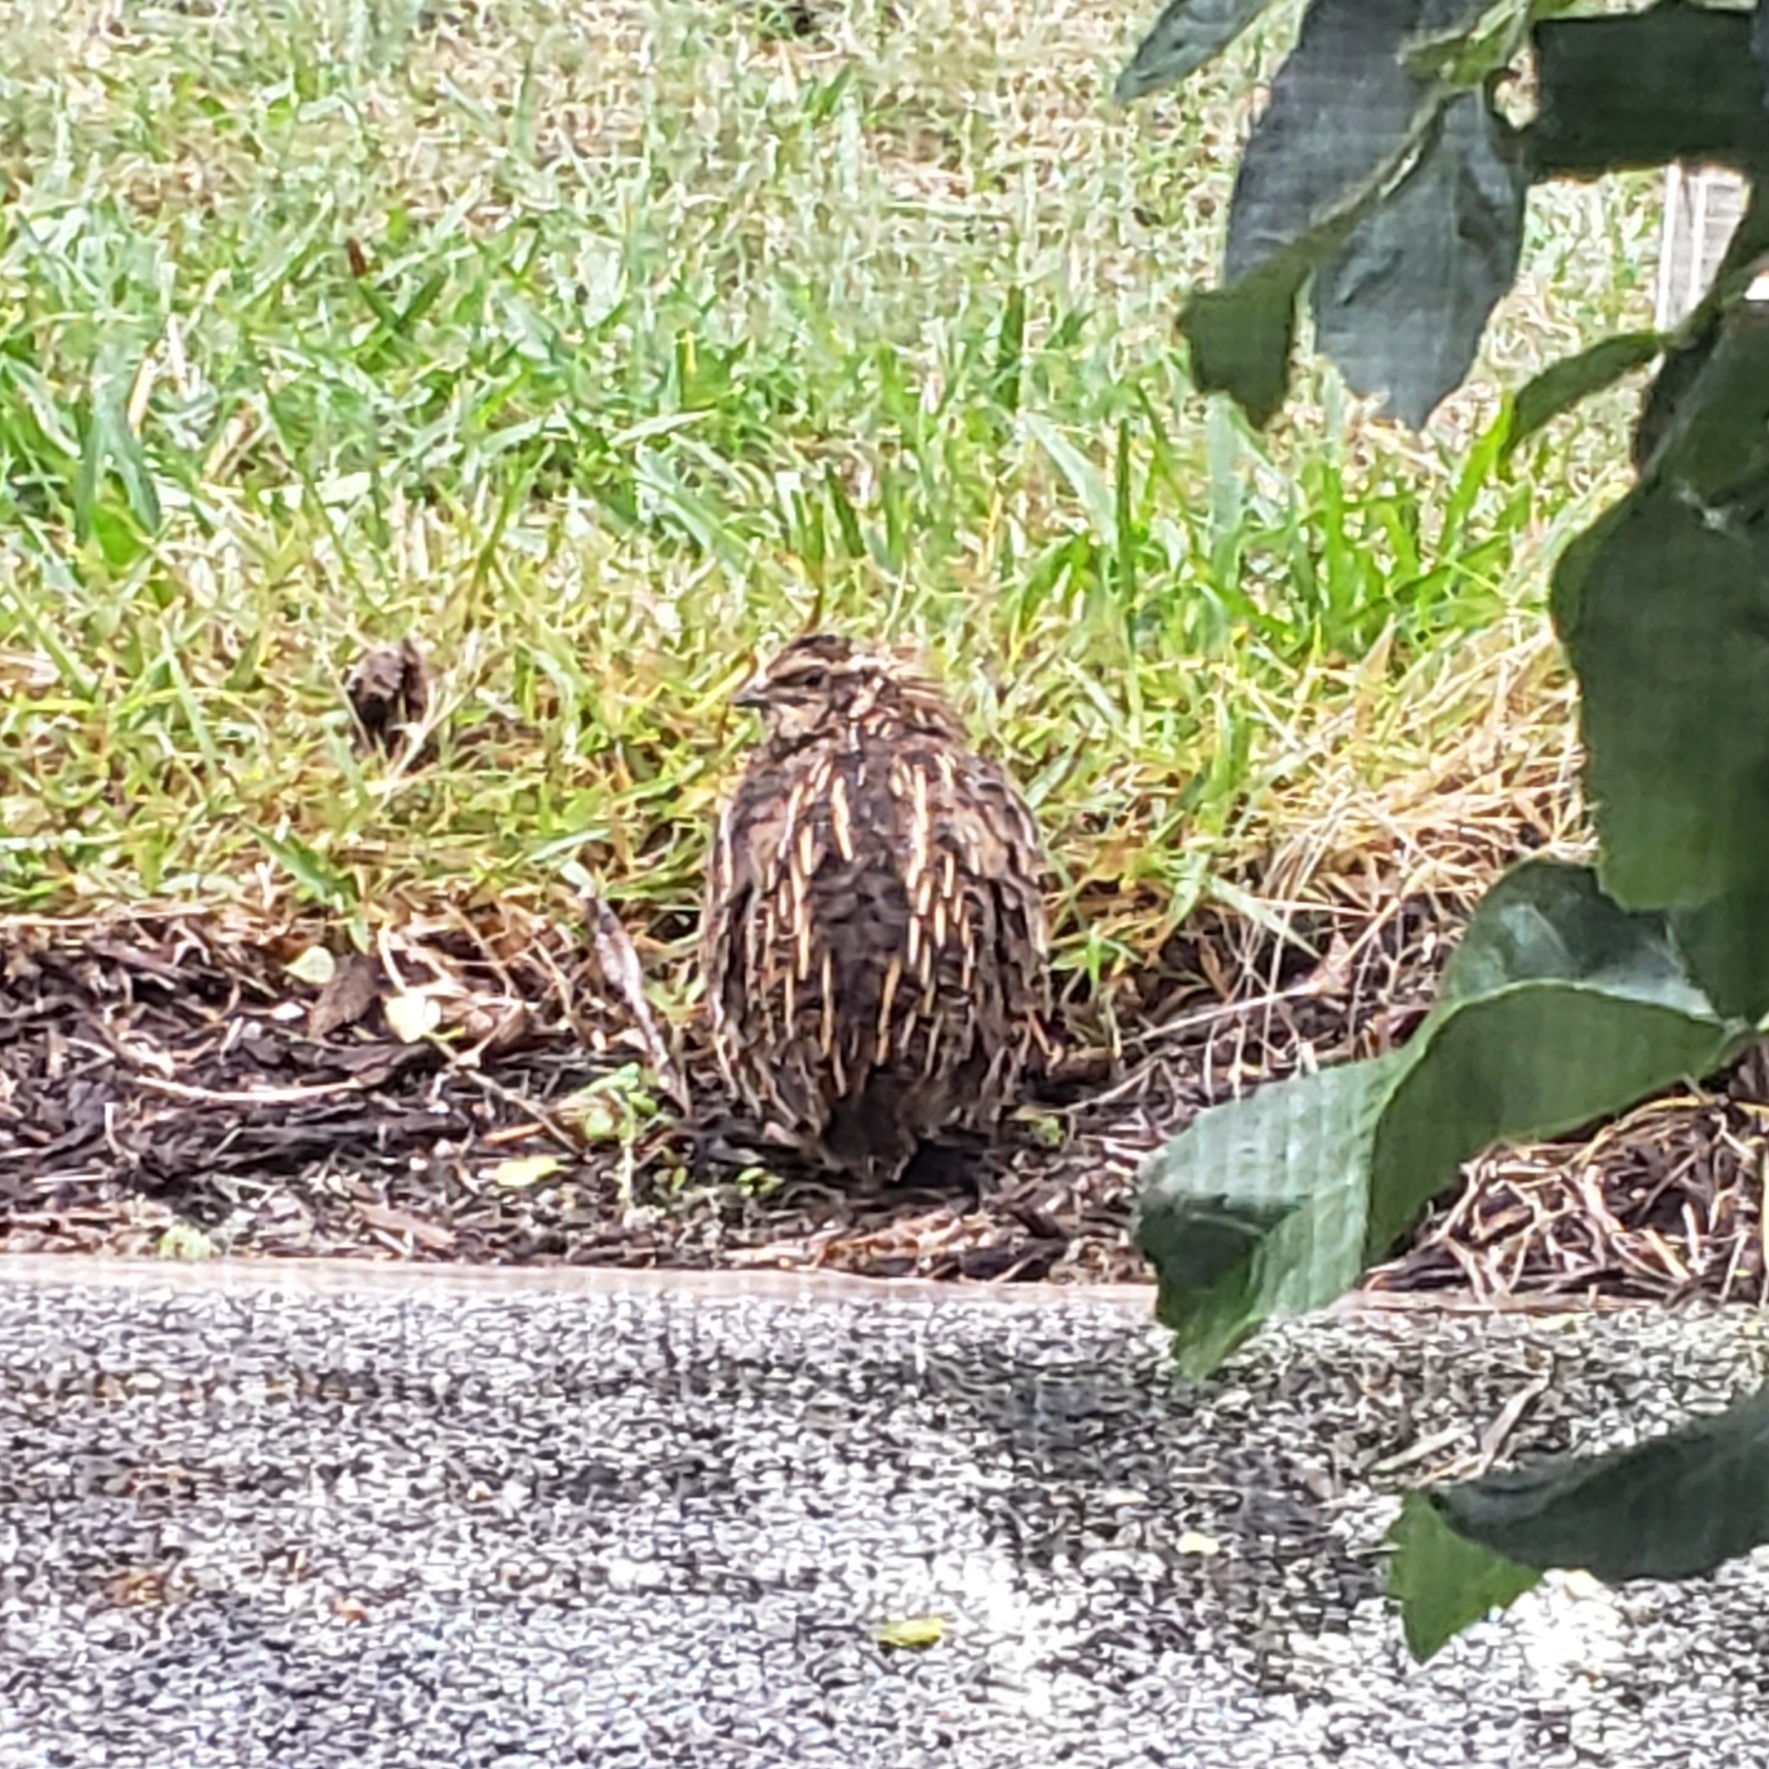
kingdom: Animalia
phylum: Chordata
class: Aves
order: Galliformes
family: Phasianidae
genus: Coturnix
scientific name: Coturnix japonica
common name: Japanese quail
